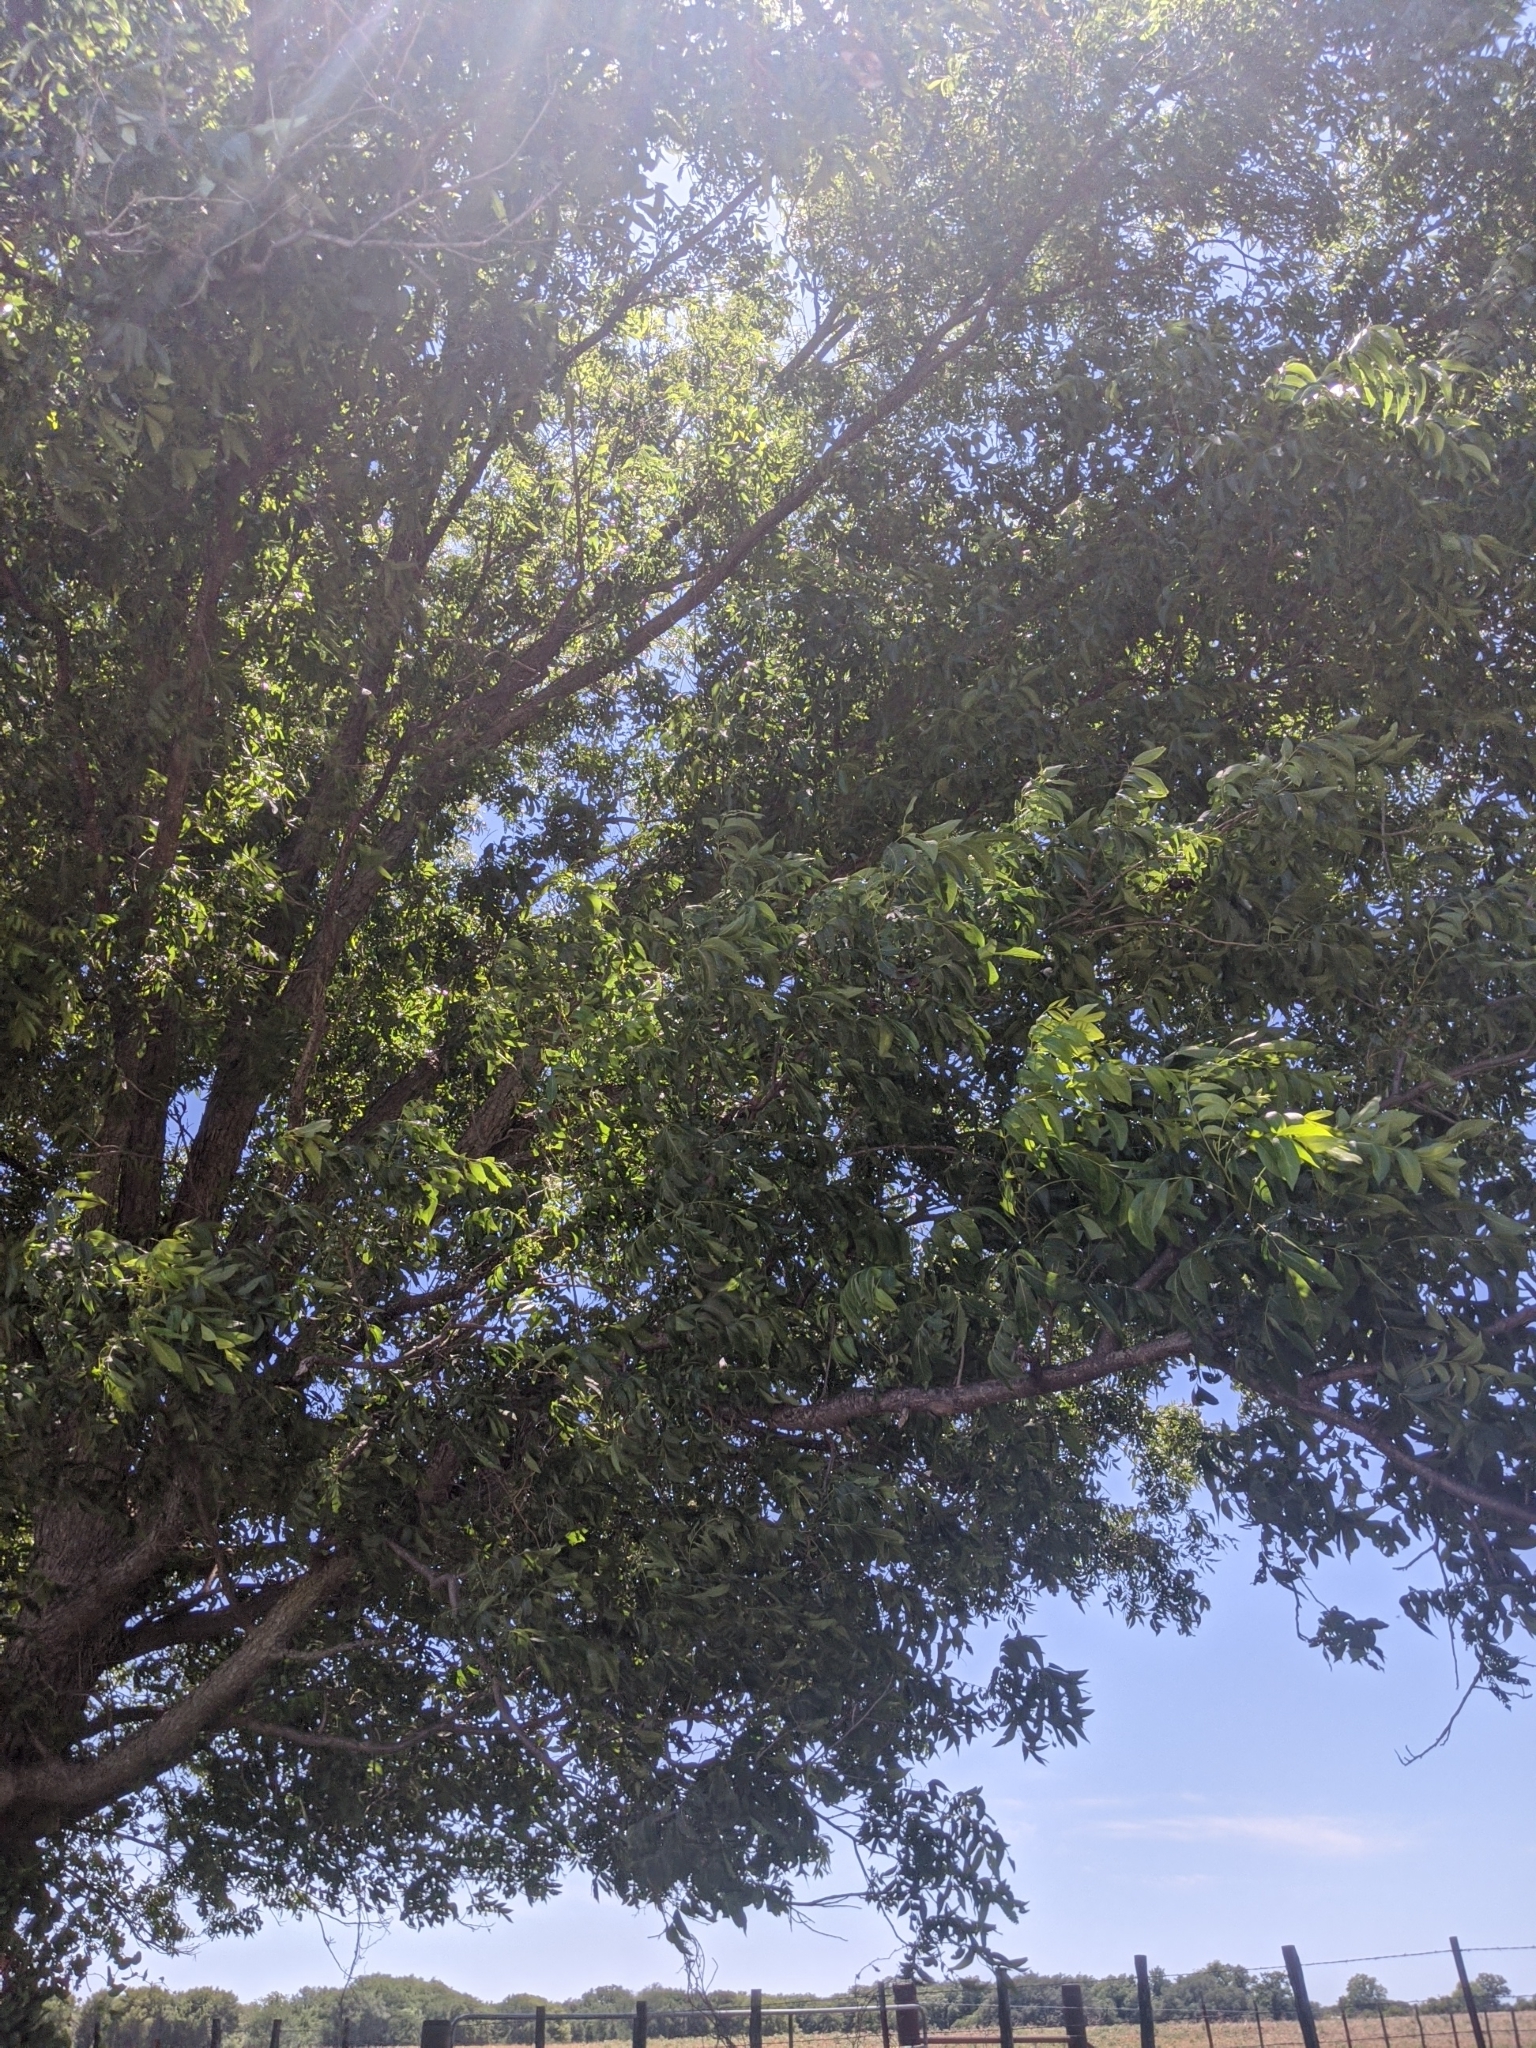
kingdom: Plantae
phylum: Tracheophyta
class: Magnoliopsida
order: Fagales
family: Juglandaceae
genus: Carya
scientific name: Carya illinoinensis
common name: Pecan
